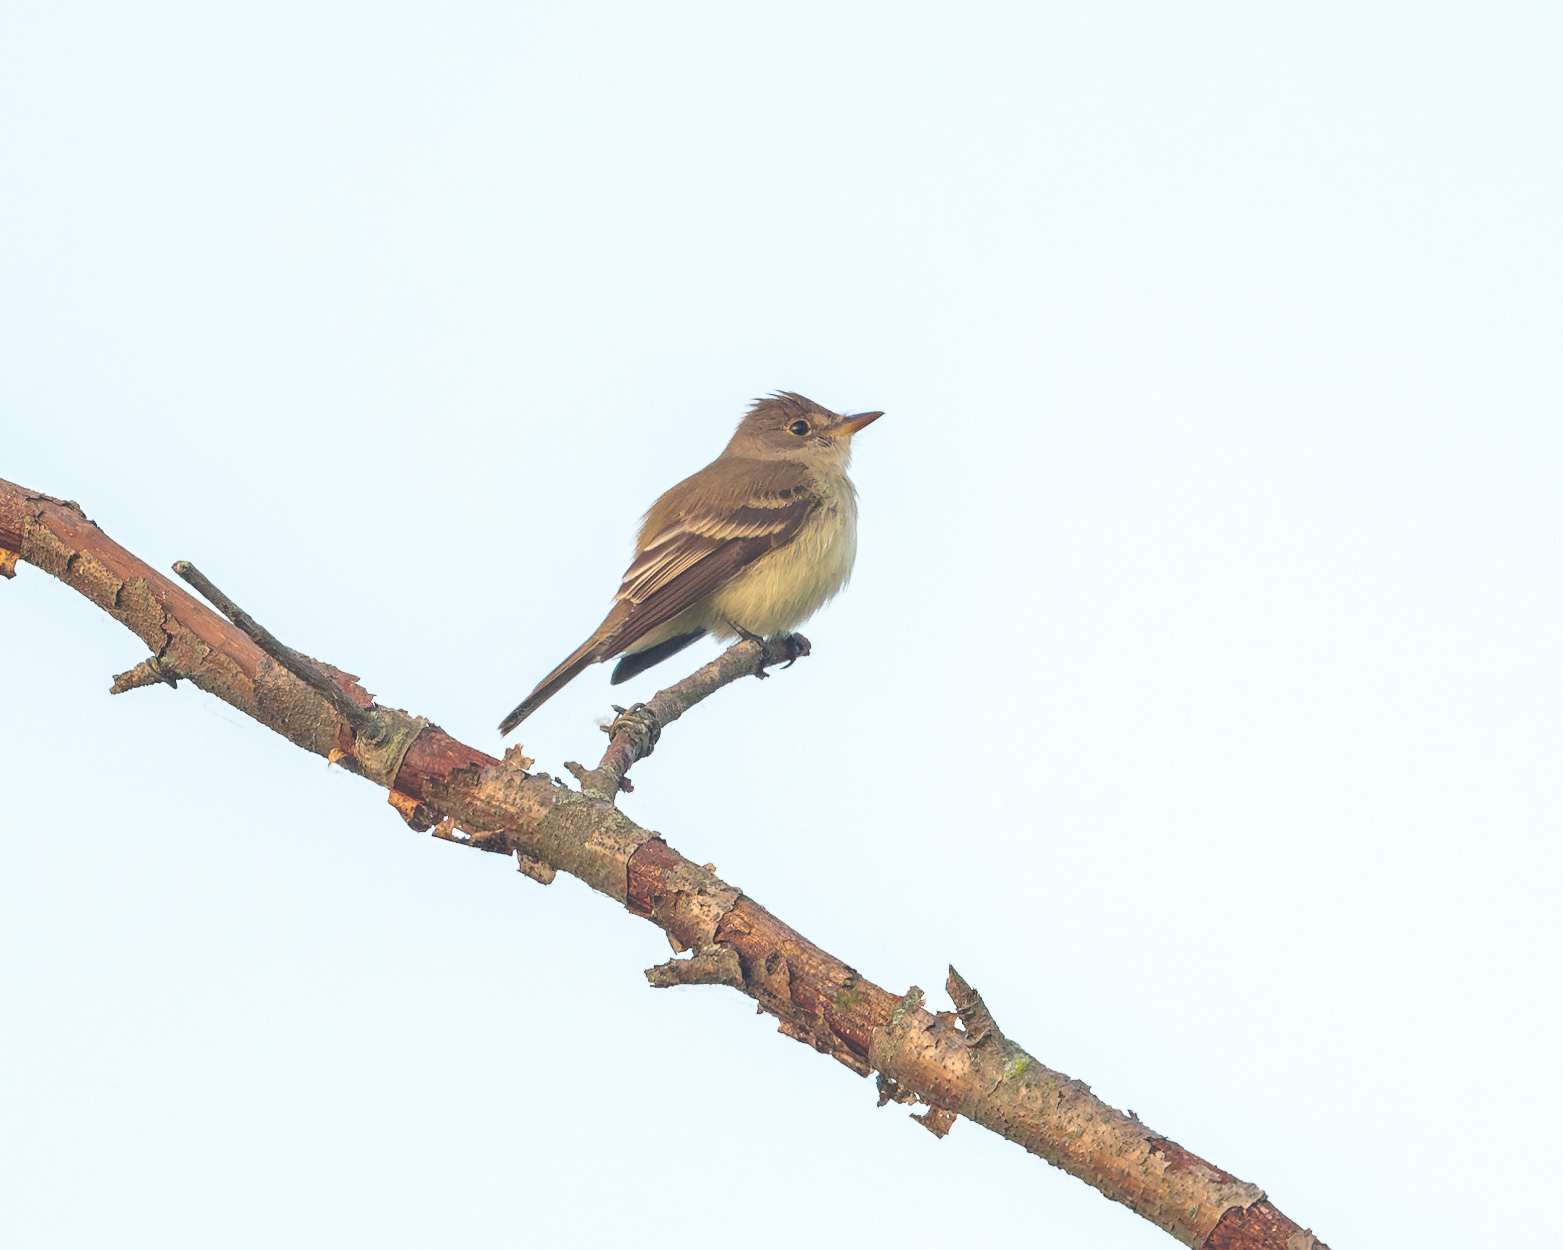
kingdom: Animalia
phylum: Chordata
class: Aves
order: Passeriformes
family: Tyrannidae
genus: Contopus
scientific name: Contopus virens
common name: Eastern wood-pewee
